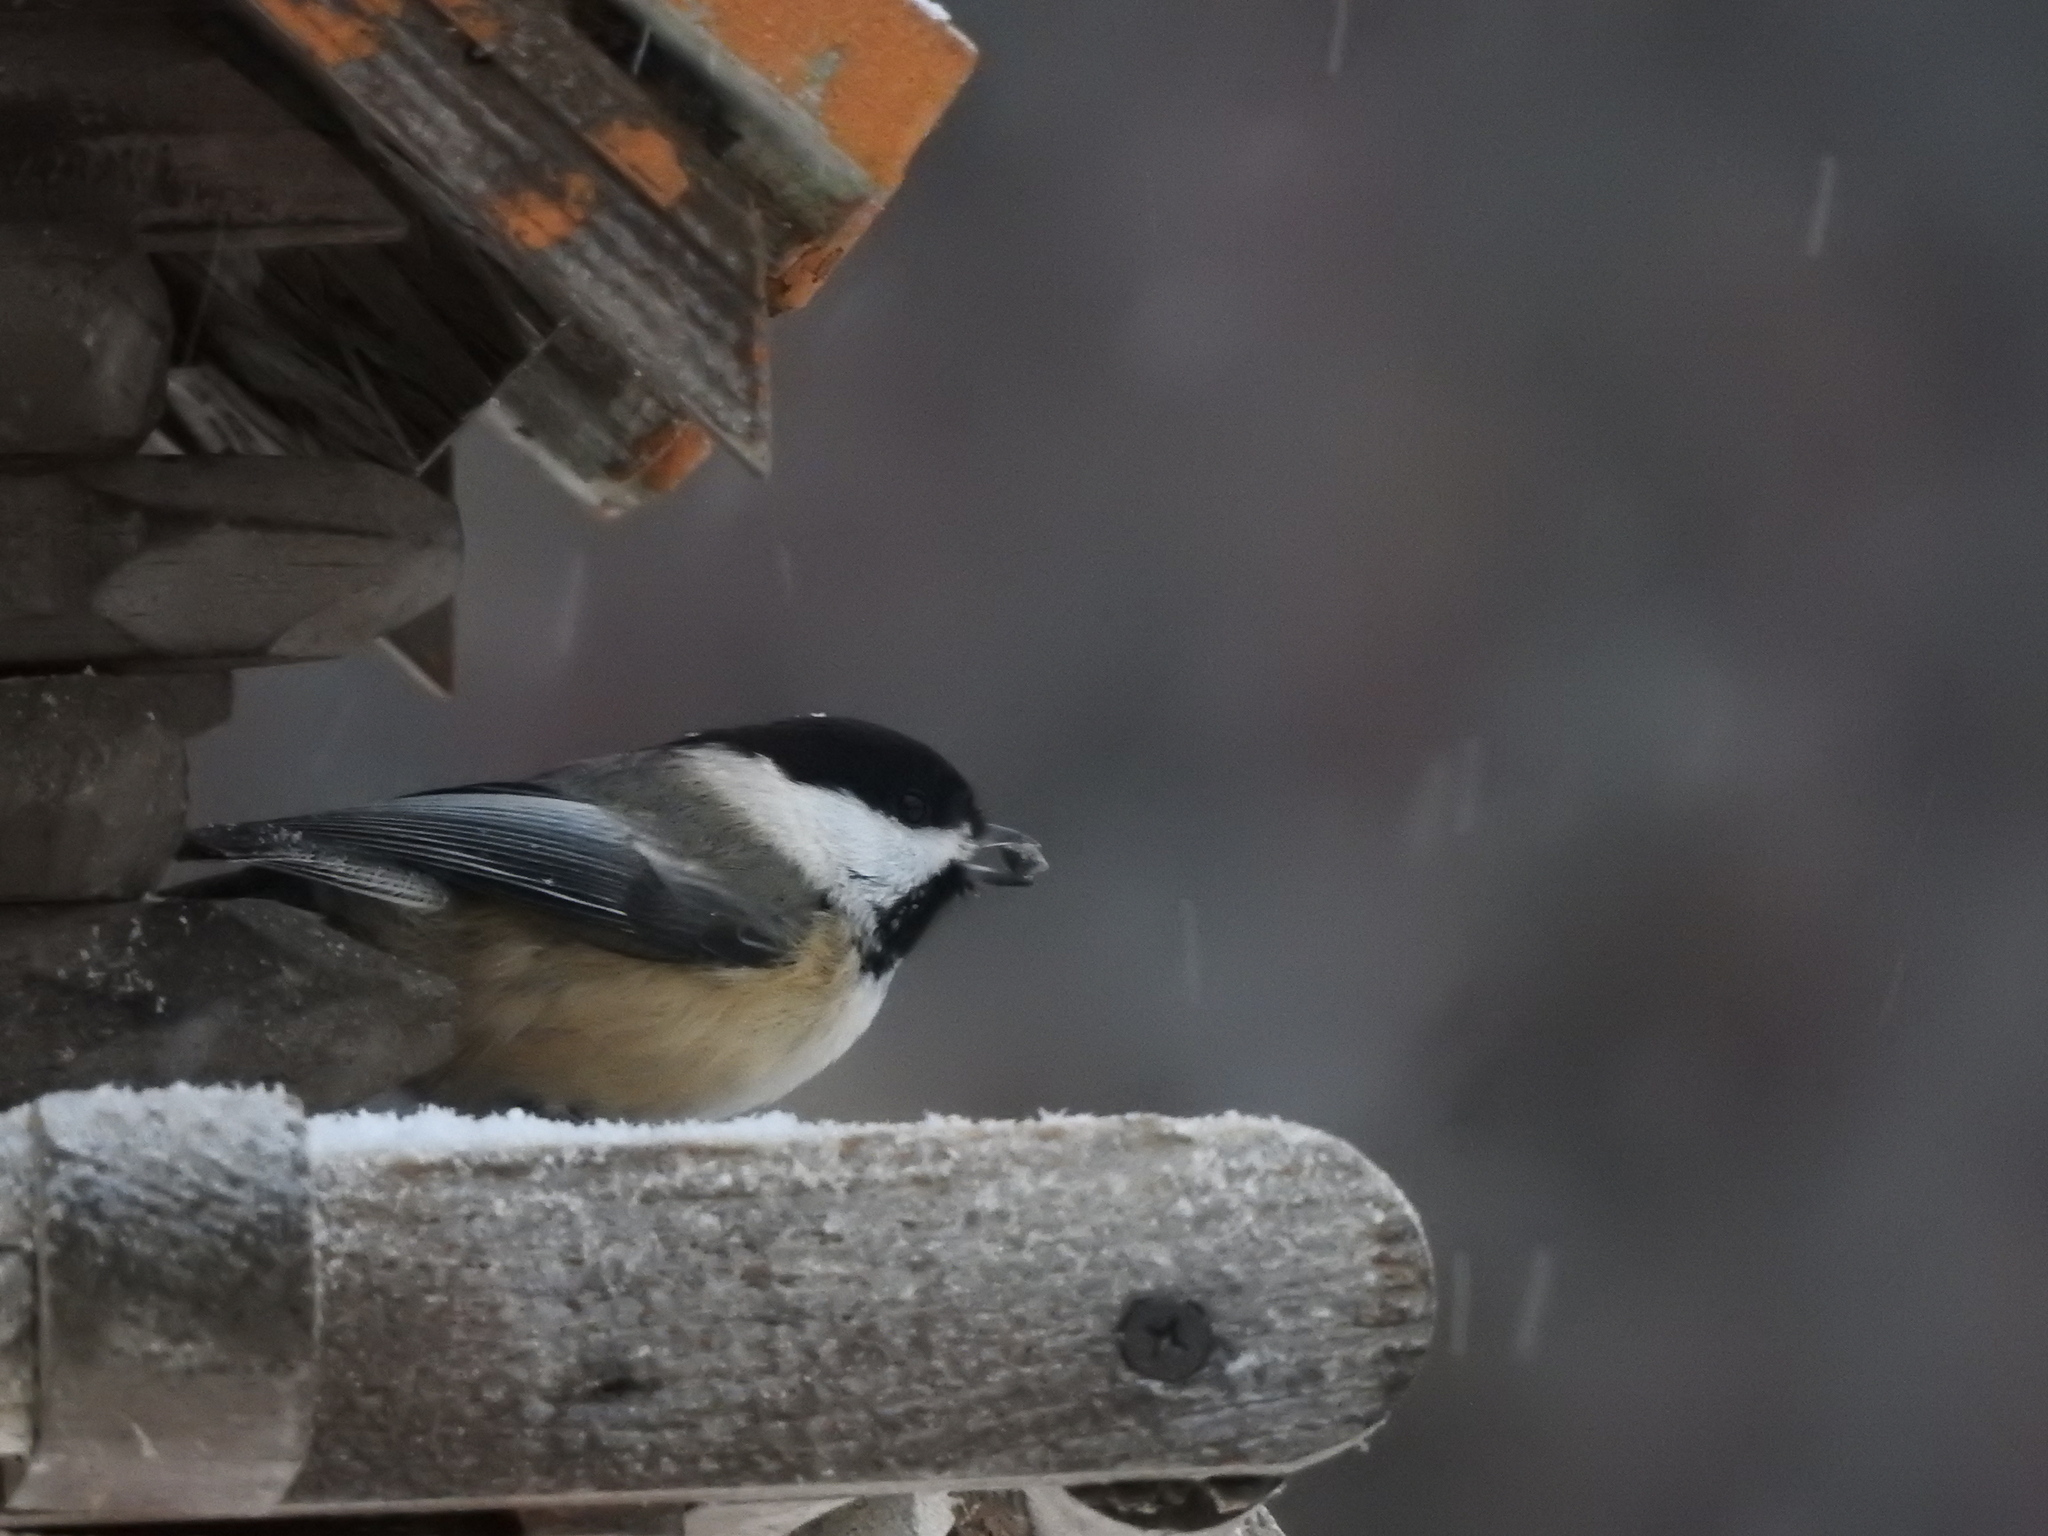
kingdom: Animalia
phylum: Chordata
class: Aves
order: Passeriformes
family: Paridae
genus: Poecile
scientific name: Poecile atricapillus
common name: Black-capped chickadee
